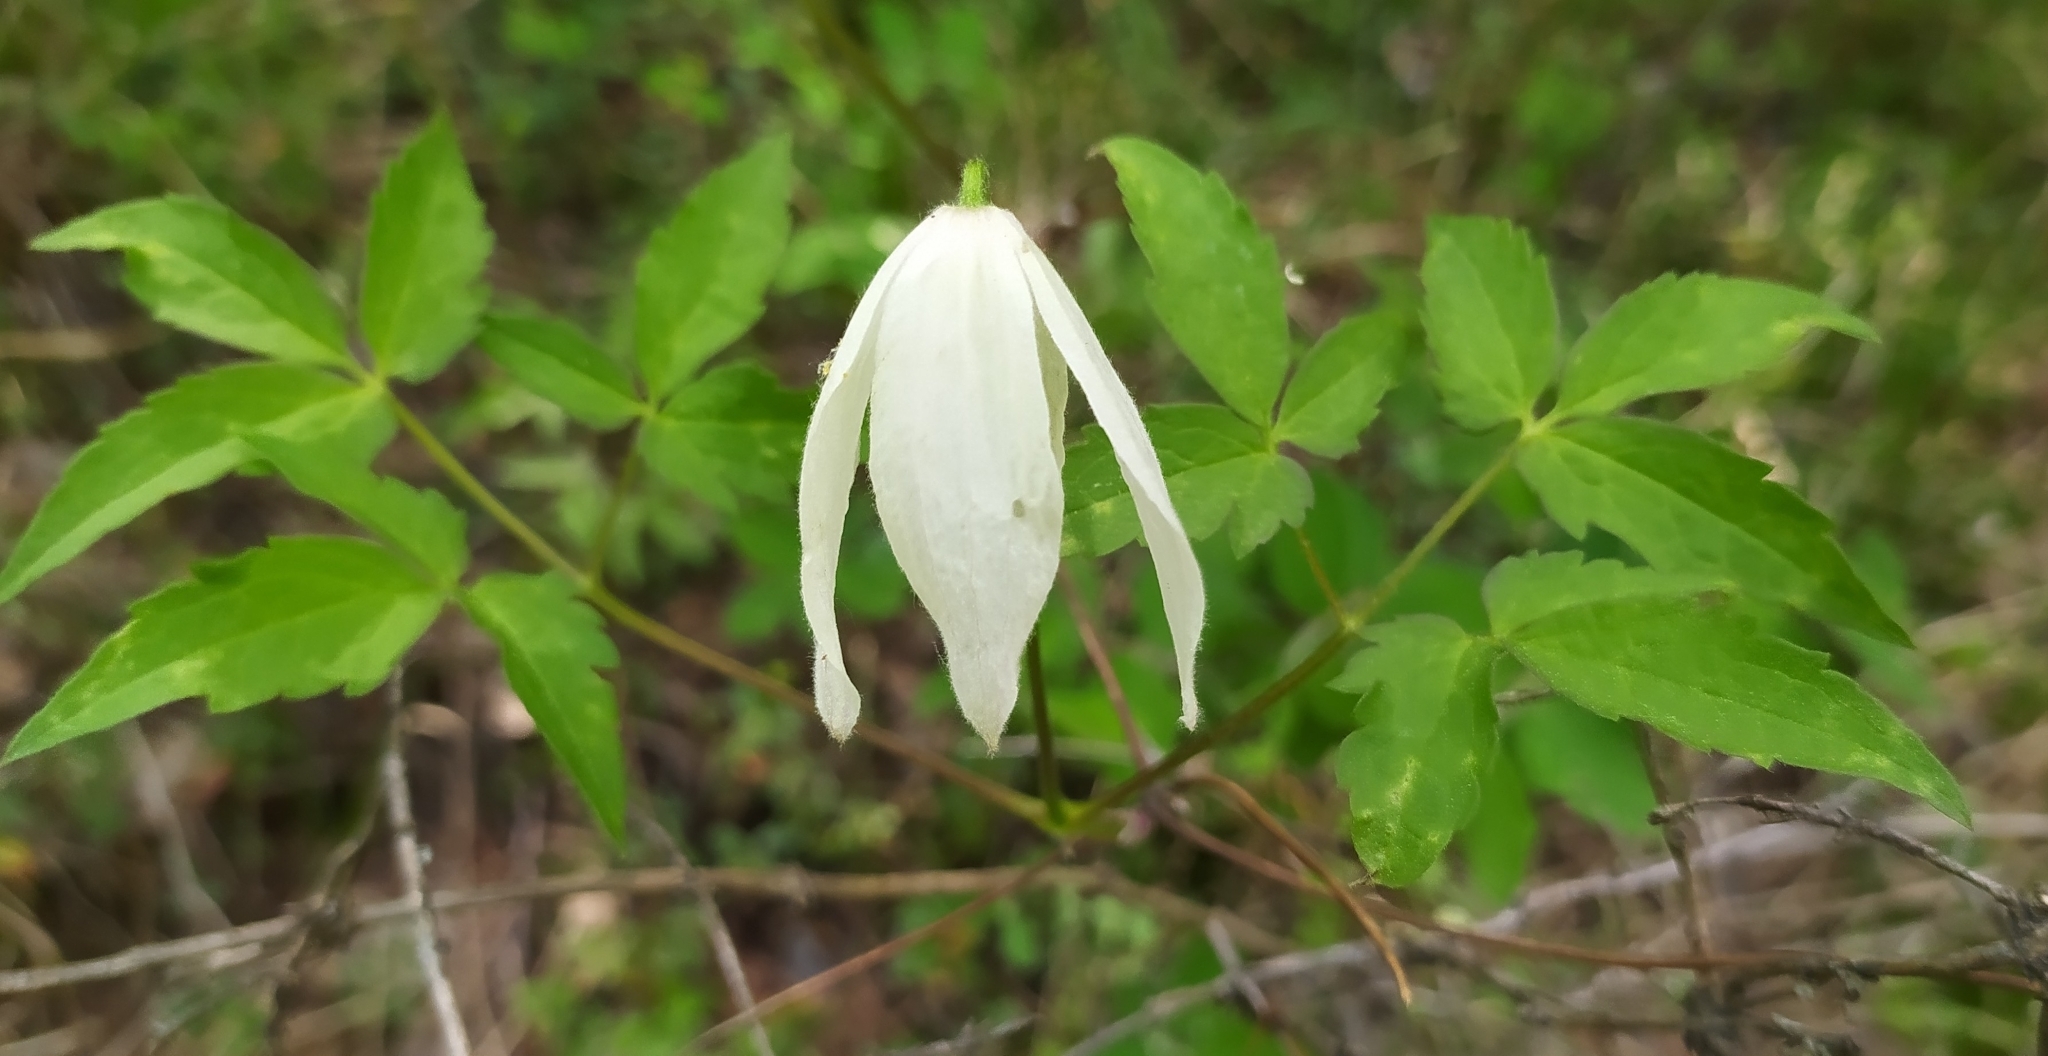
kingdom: Plantae
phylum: Tracheophyta
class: Magnoliopsida
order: Ranunculales
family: Ranunculaceae
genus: Clematis
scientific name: Clematis sibirica
